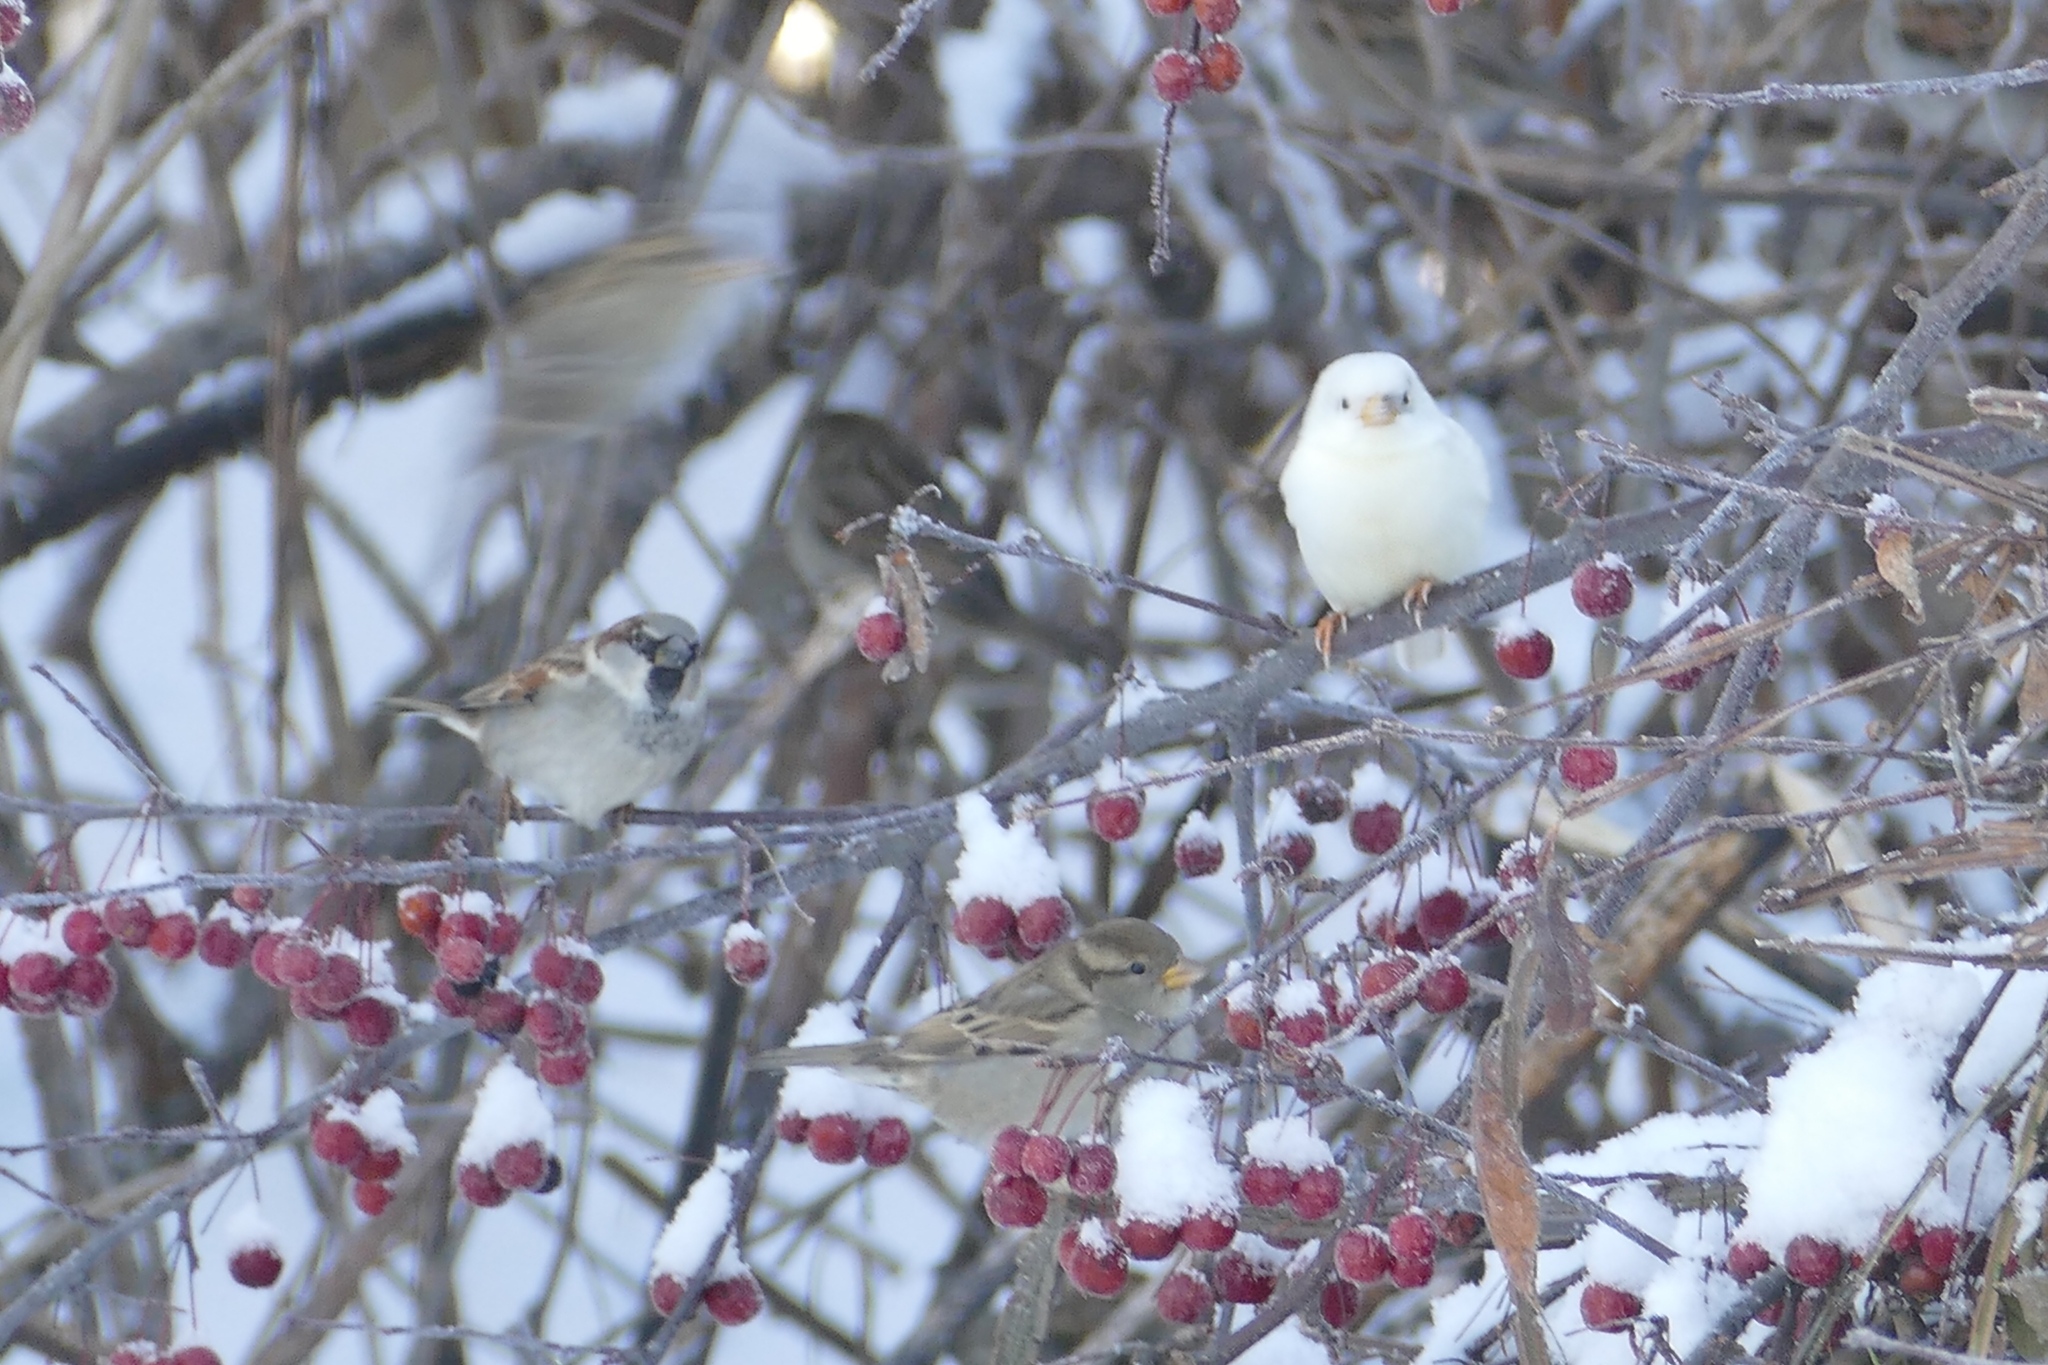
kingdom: Animalia
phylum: Chordata
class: Aves
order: Passeriformes
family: Passeridae
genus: Passer
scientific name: Passer domesticus
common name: House sparrow
